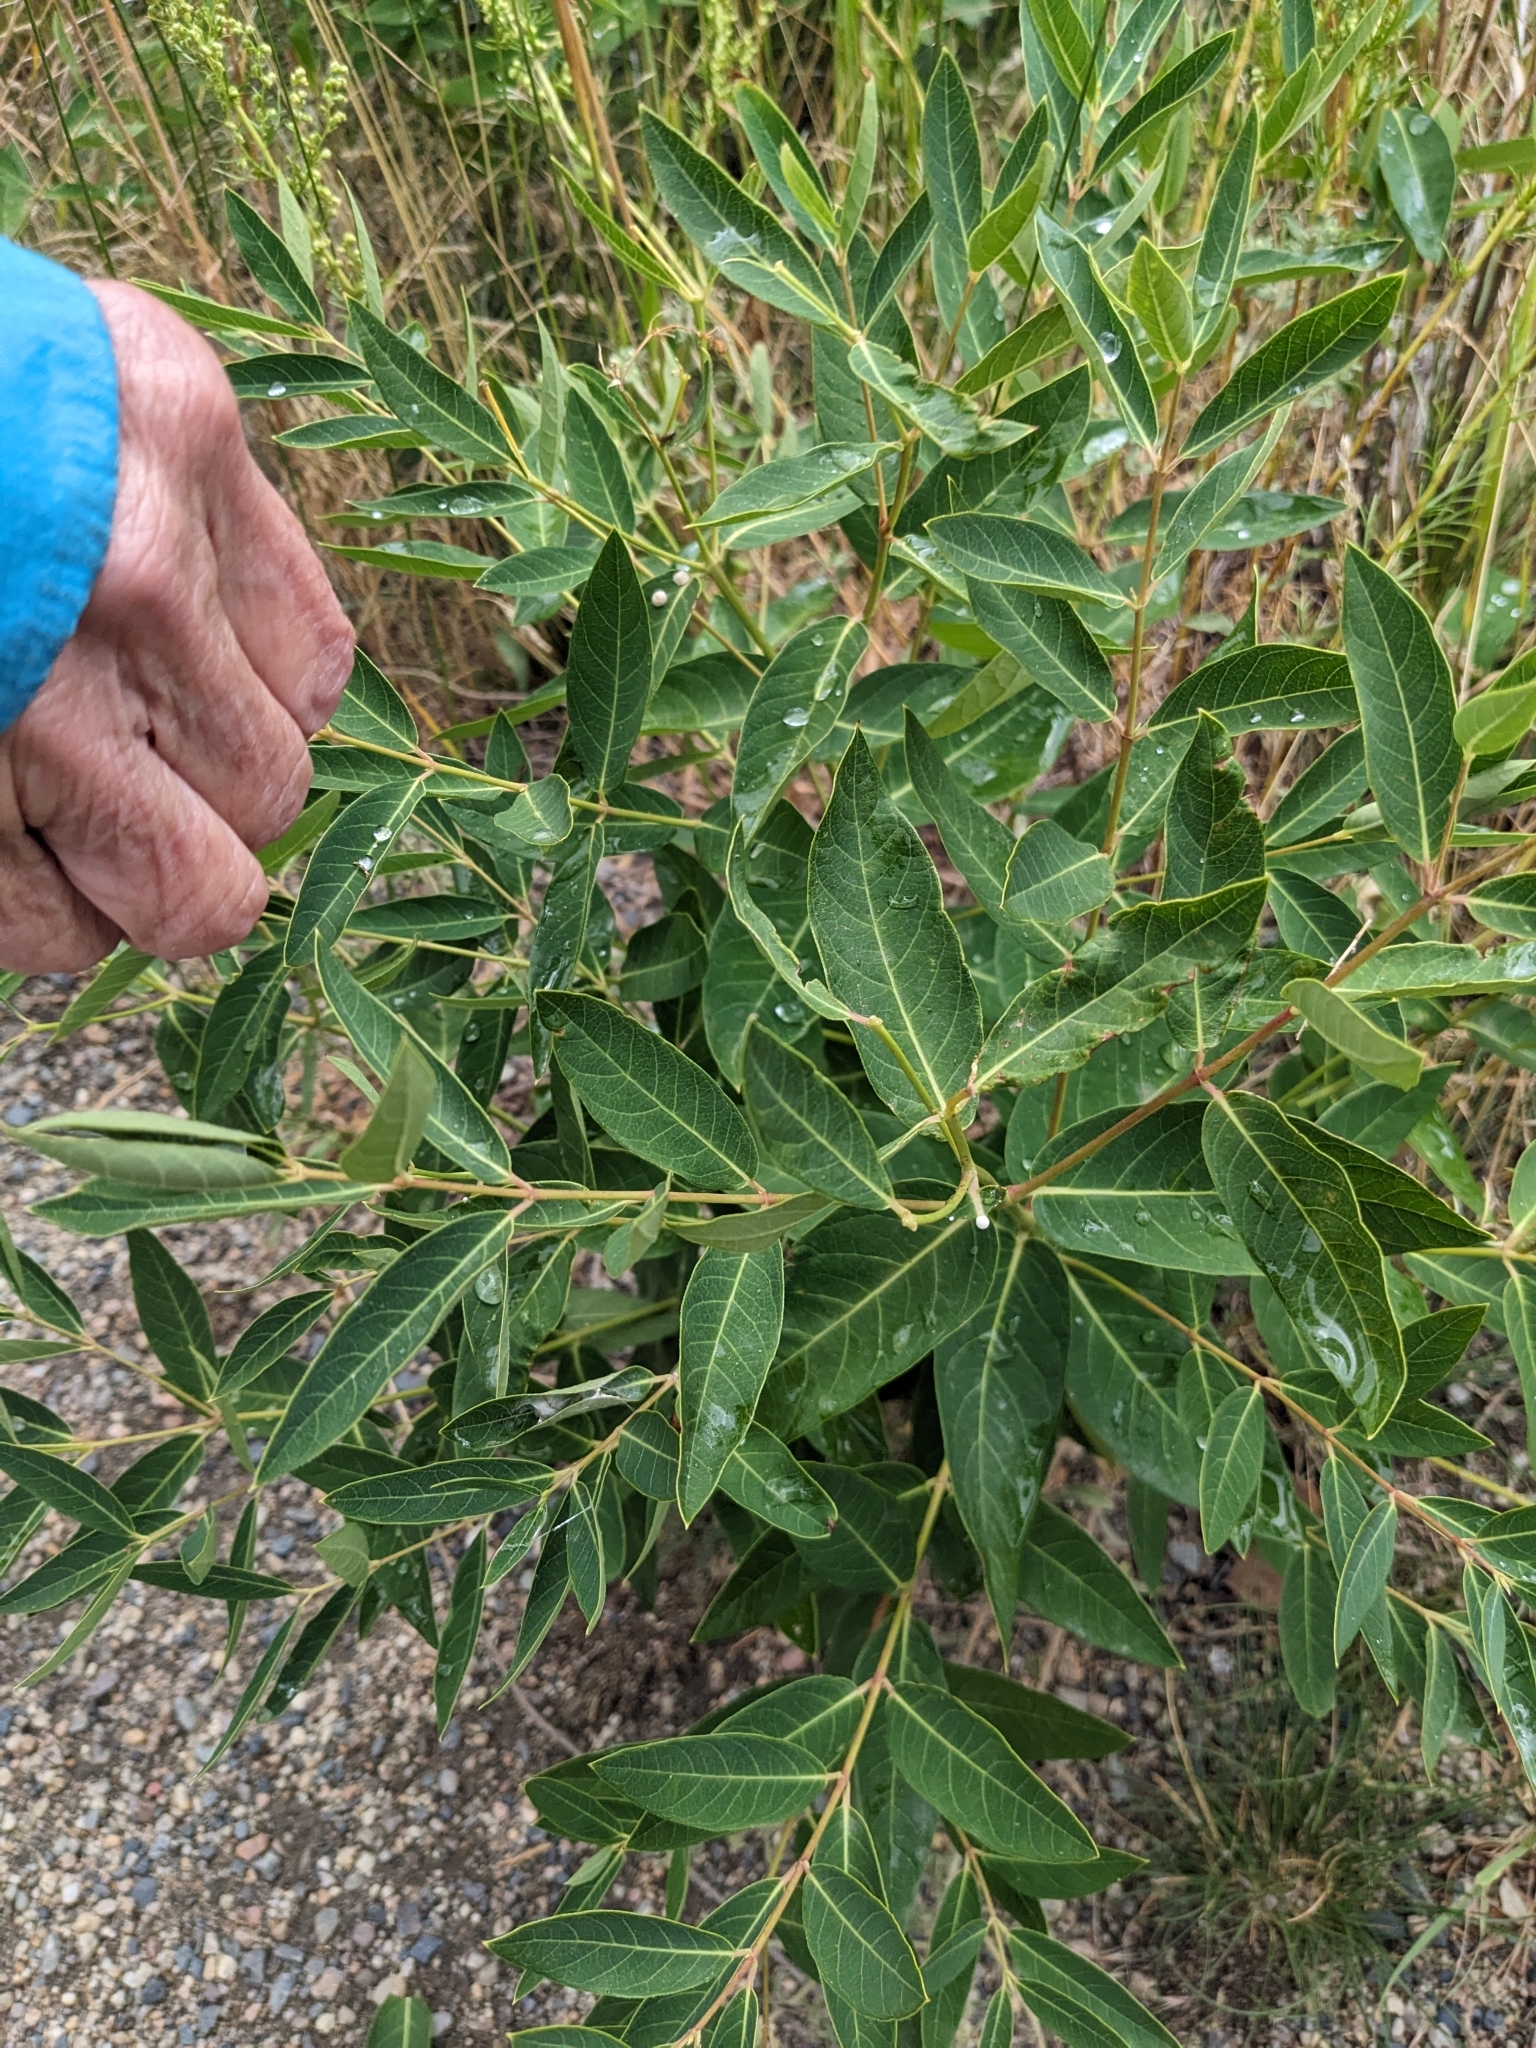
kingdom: Plantae
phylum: Tracheophyta
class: Magnoliopsida
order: Gentianales
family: Apocynaceae
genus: Apocynum
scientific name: Apocynum cannabinum
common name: Hemp dogbane
